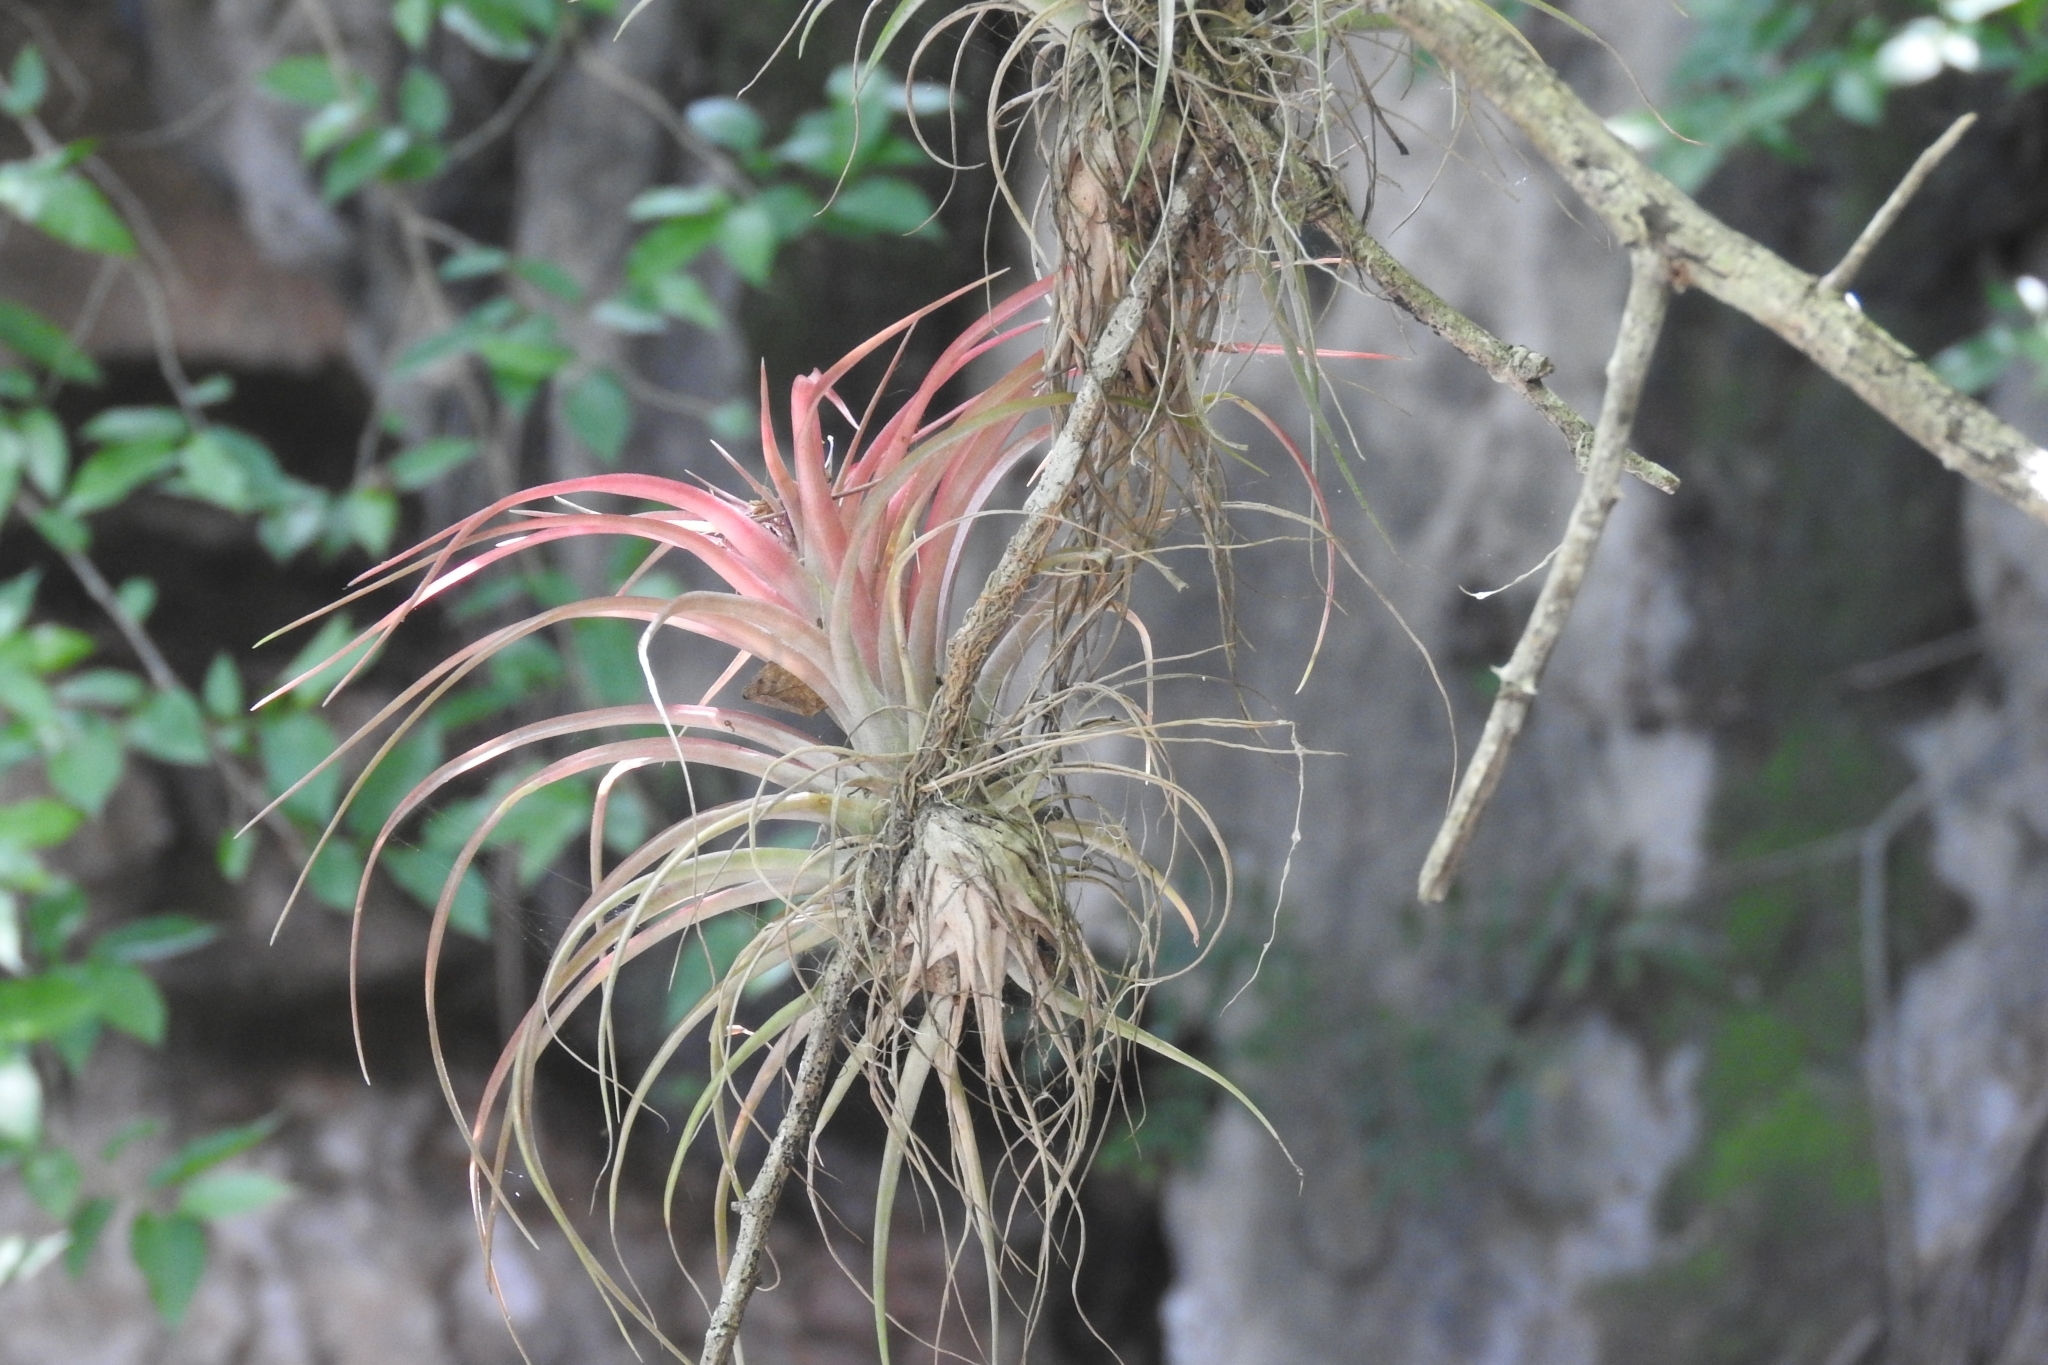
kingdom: Plantae
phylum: Tracheophyta
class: Liliopsida
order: Poales
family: Bromeliaceae
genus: Tillandsia
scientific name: Tillandsia brachycaulos
